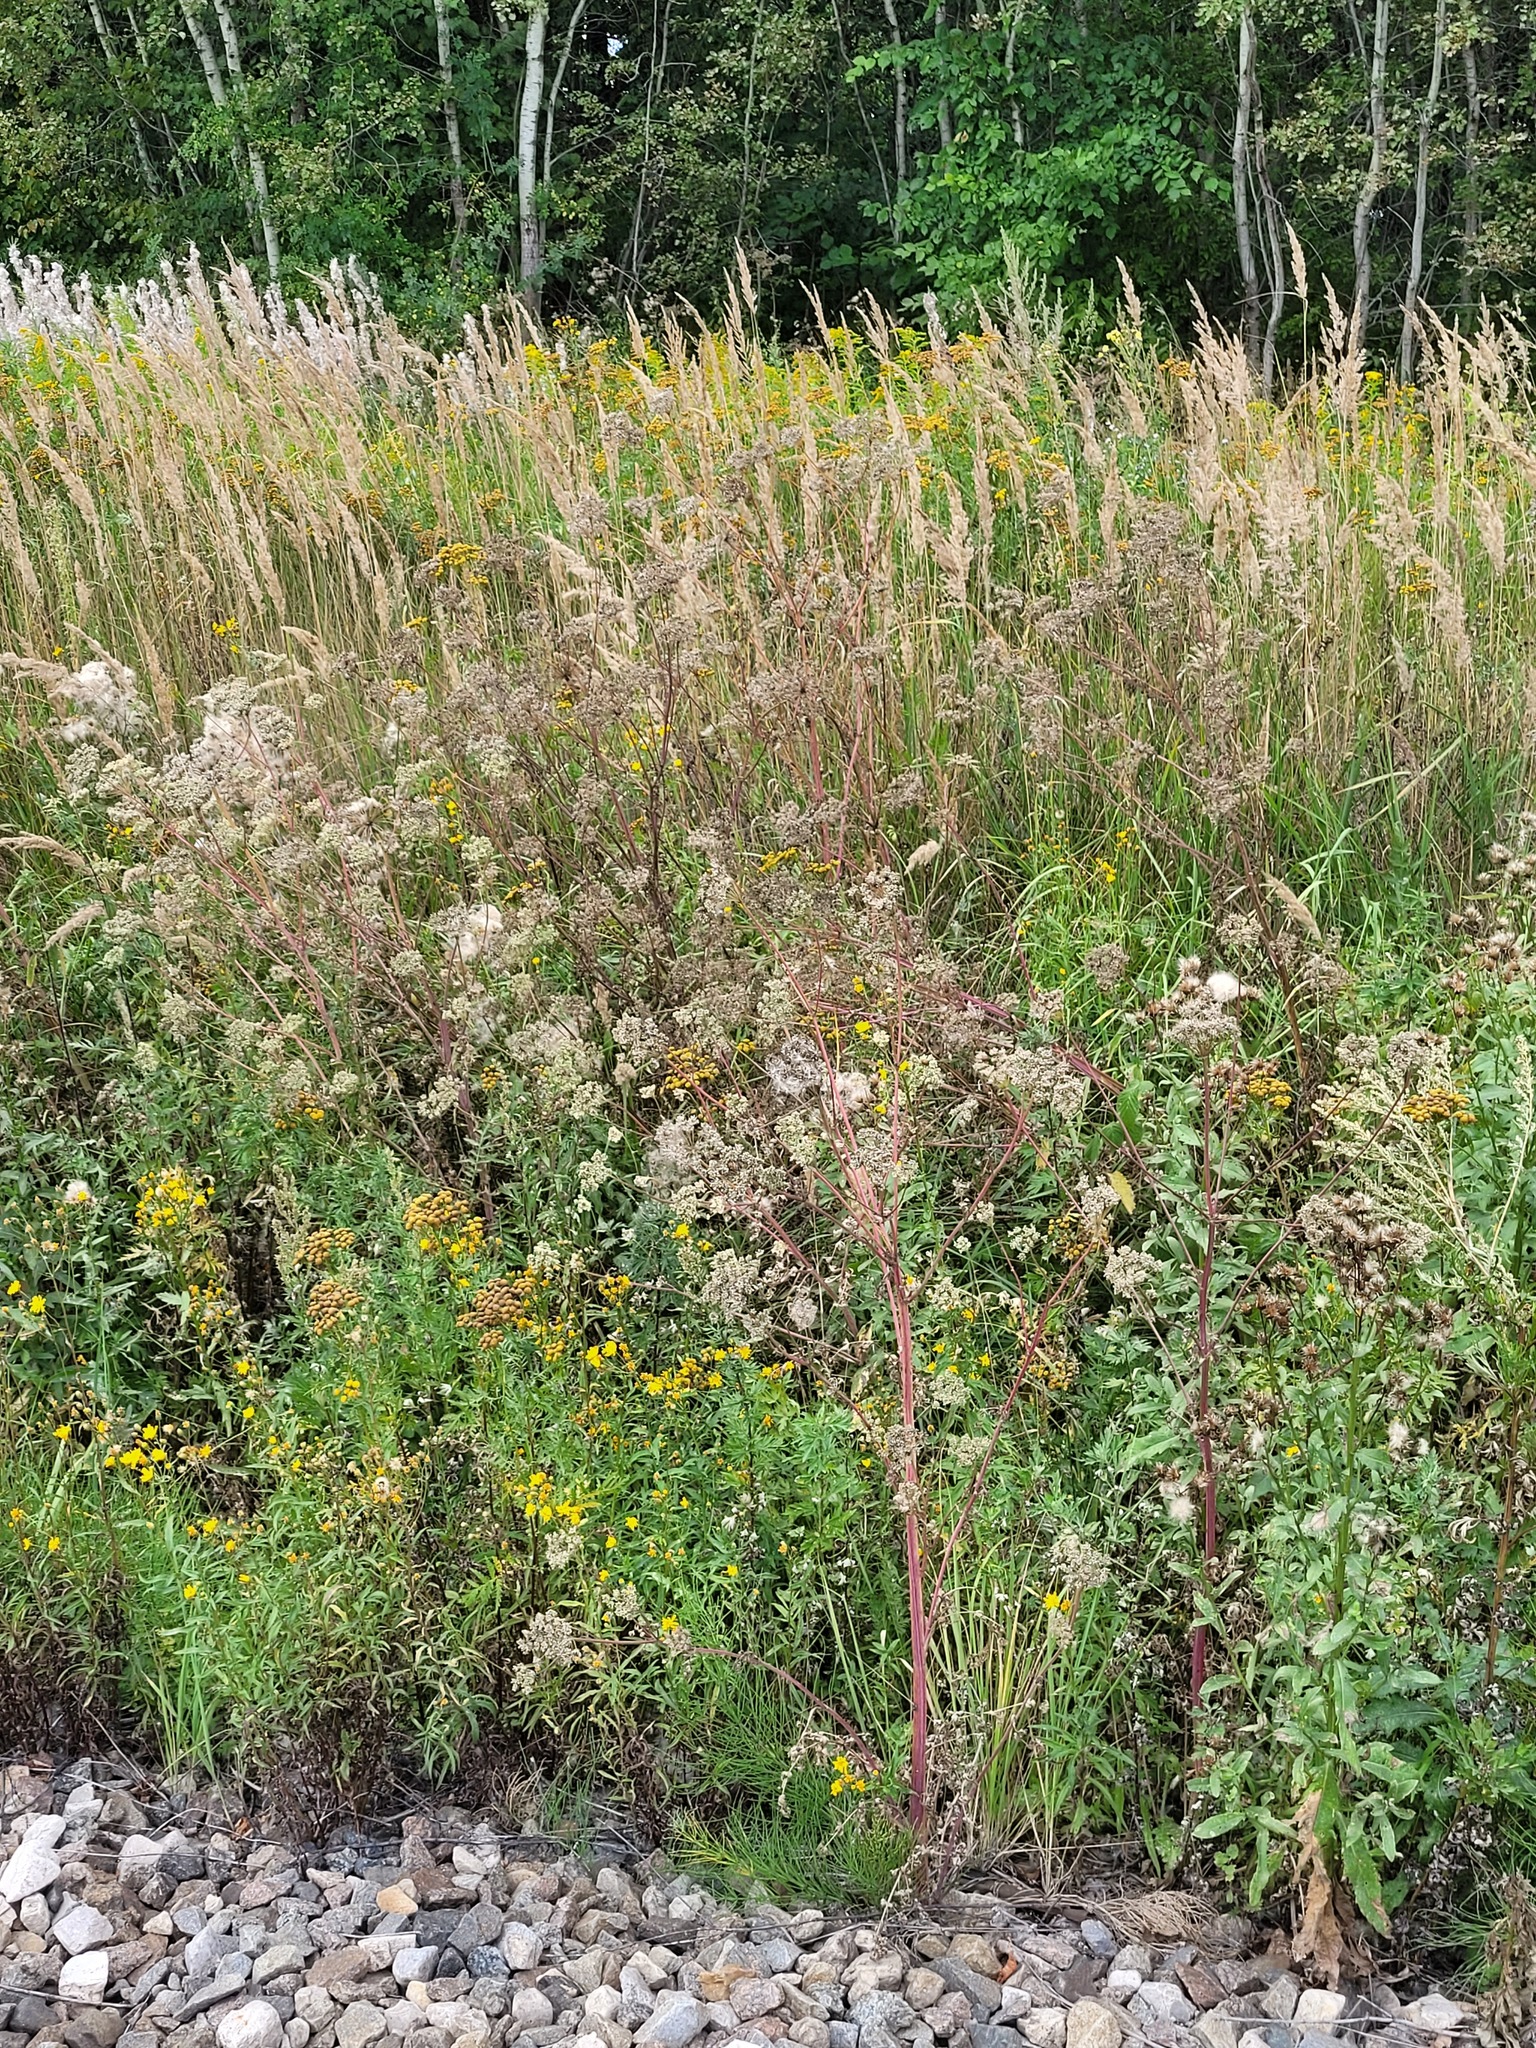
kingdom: Plantae
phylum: Tracheophyta
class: Magnoliopsida
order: Apiales
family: Apiaceae
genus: Seseli
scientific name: Seseli libanotis
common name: Mooncarrot
